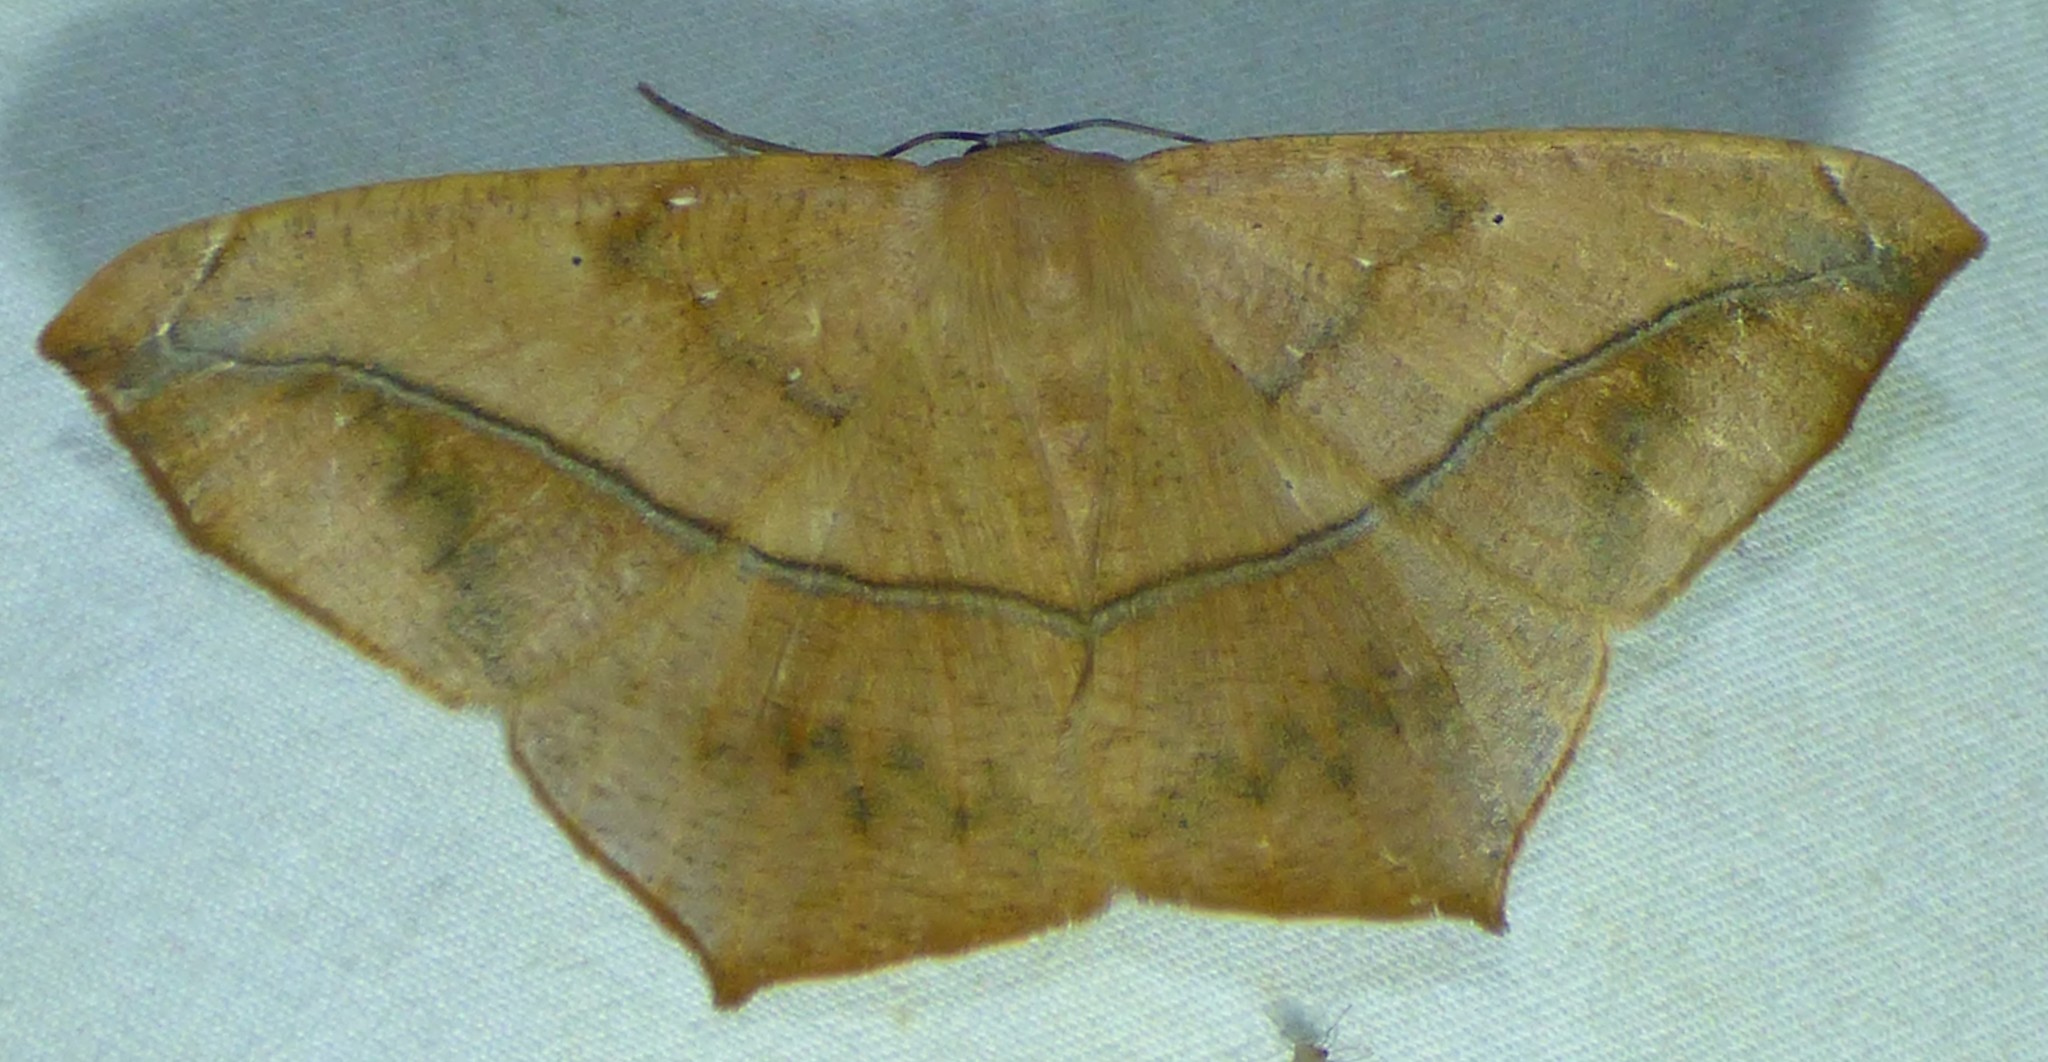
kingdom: Animalia
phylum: Arthropoda
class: Insecta
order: Lepidoptera
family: Geometridae
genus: Prochoerodes
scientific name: Prochoerodes lineola
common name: Large maple spanworm
